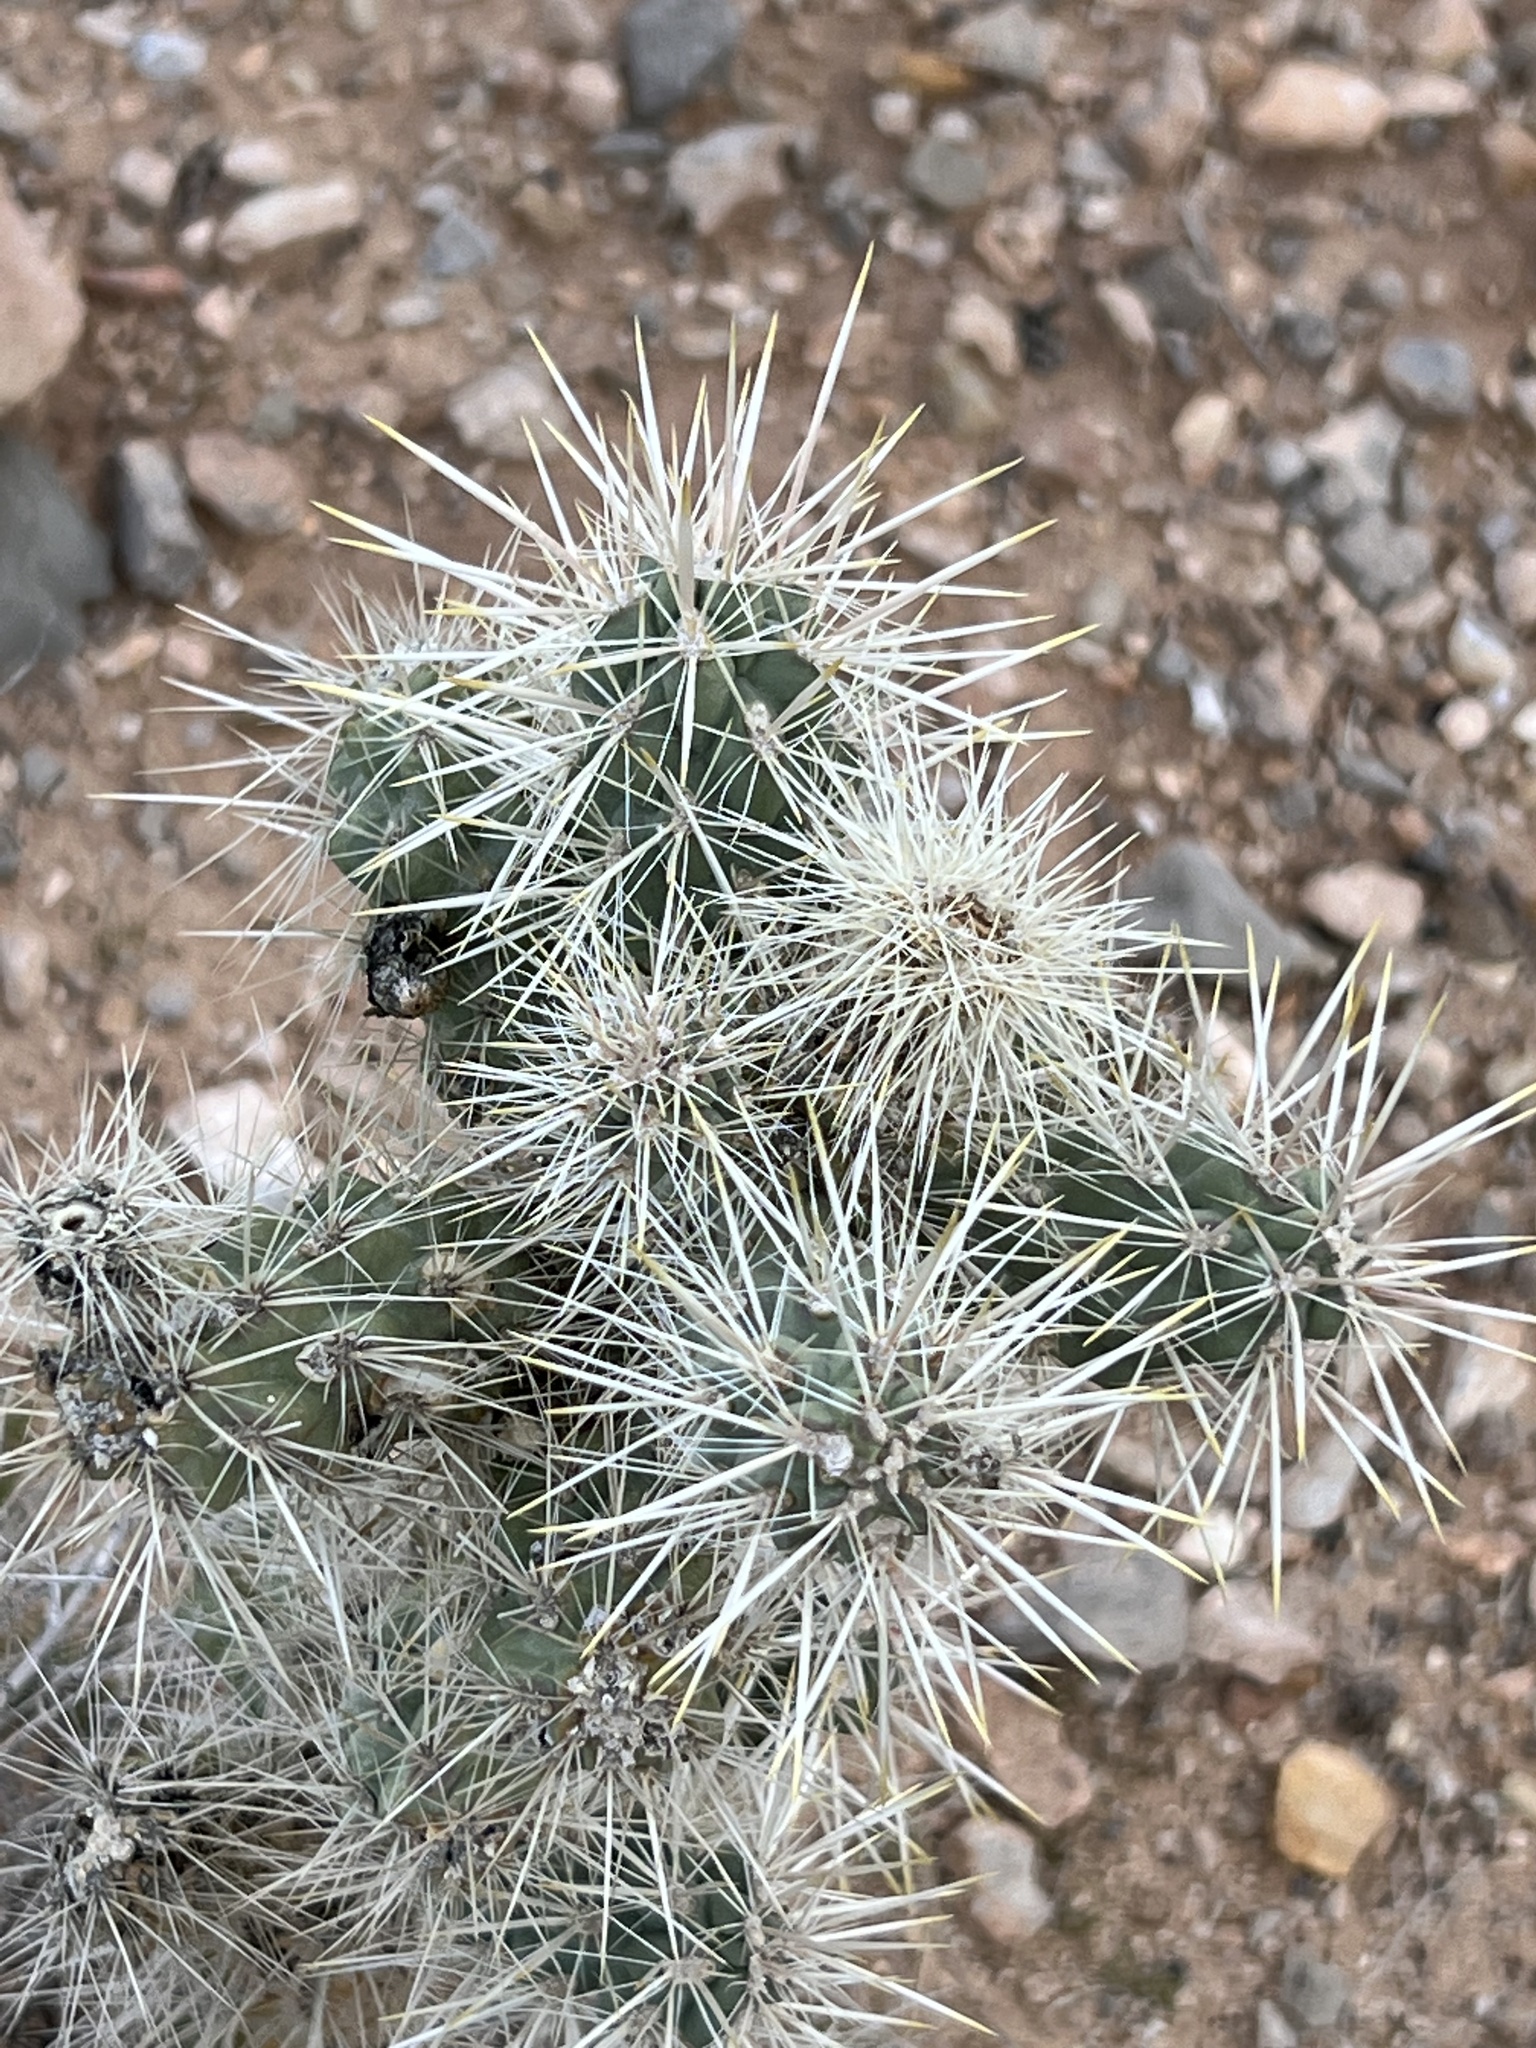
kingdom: Plantae
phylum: Tracheophyta
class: Magnoliopsida
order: Caryophyllales
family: Cactaceae
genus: Cylindropuntia
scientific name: Cylindropuntia echinocarpa
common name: Ground cholla
